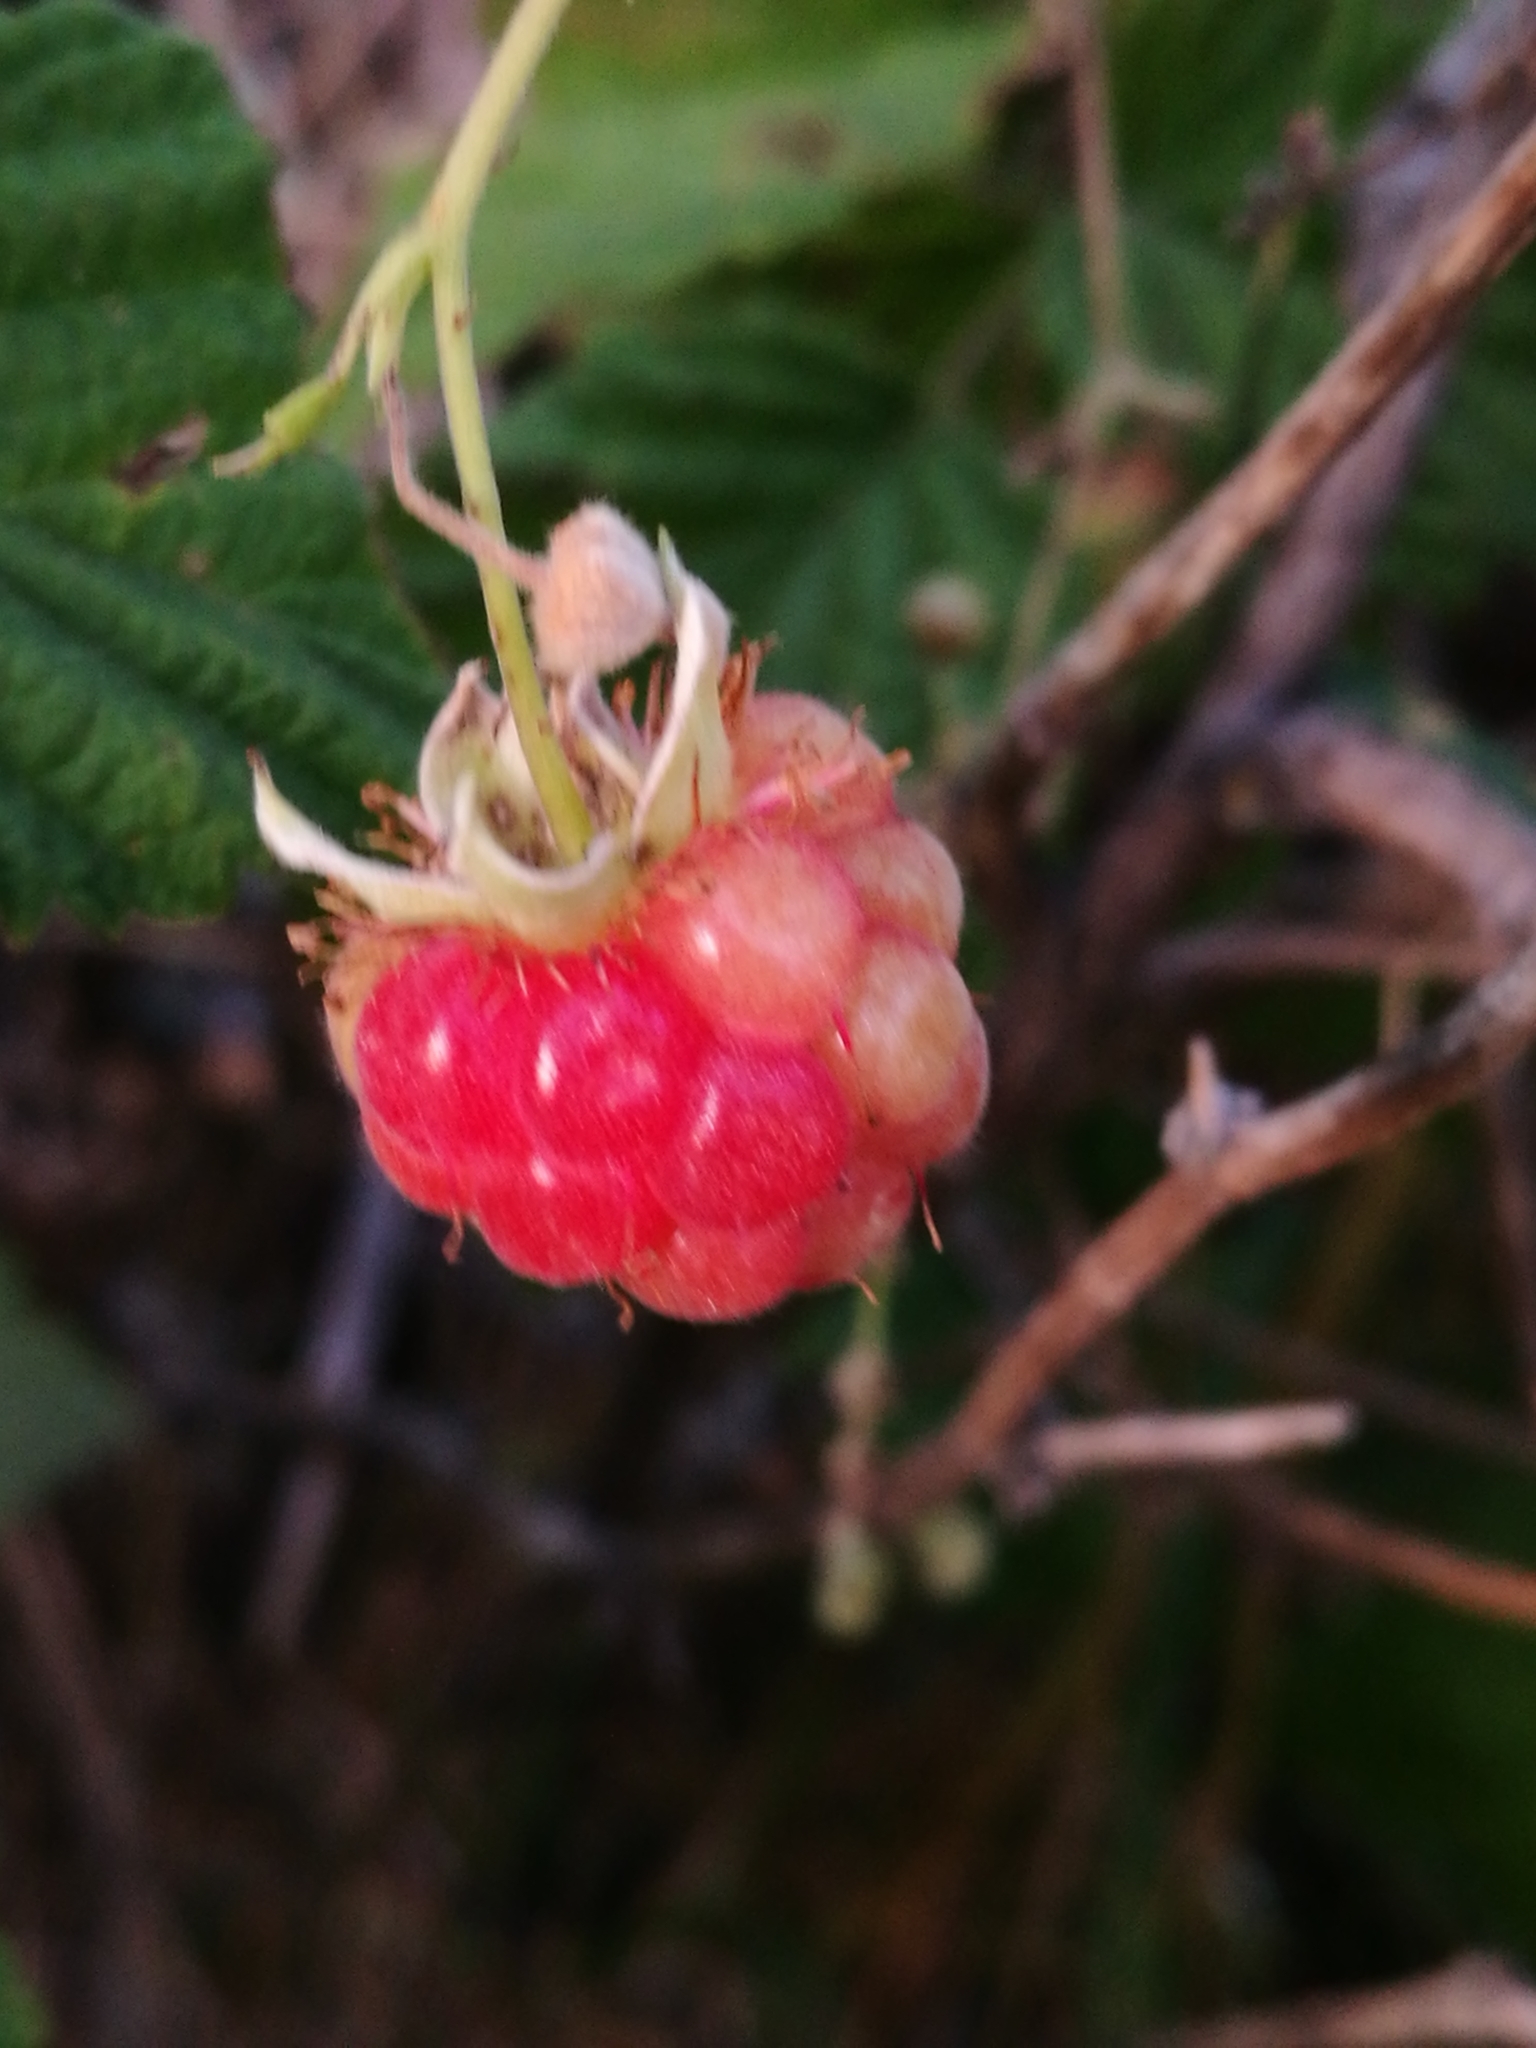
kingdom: Plantae
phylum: Tracheophyta
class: Magnoliopsida
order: Rosales
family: Rosaceae
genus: Rubus
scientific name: Rubus idaeus
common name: Raspberry
